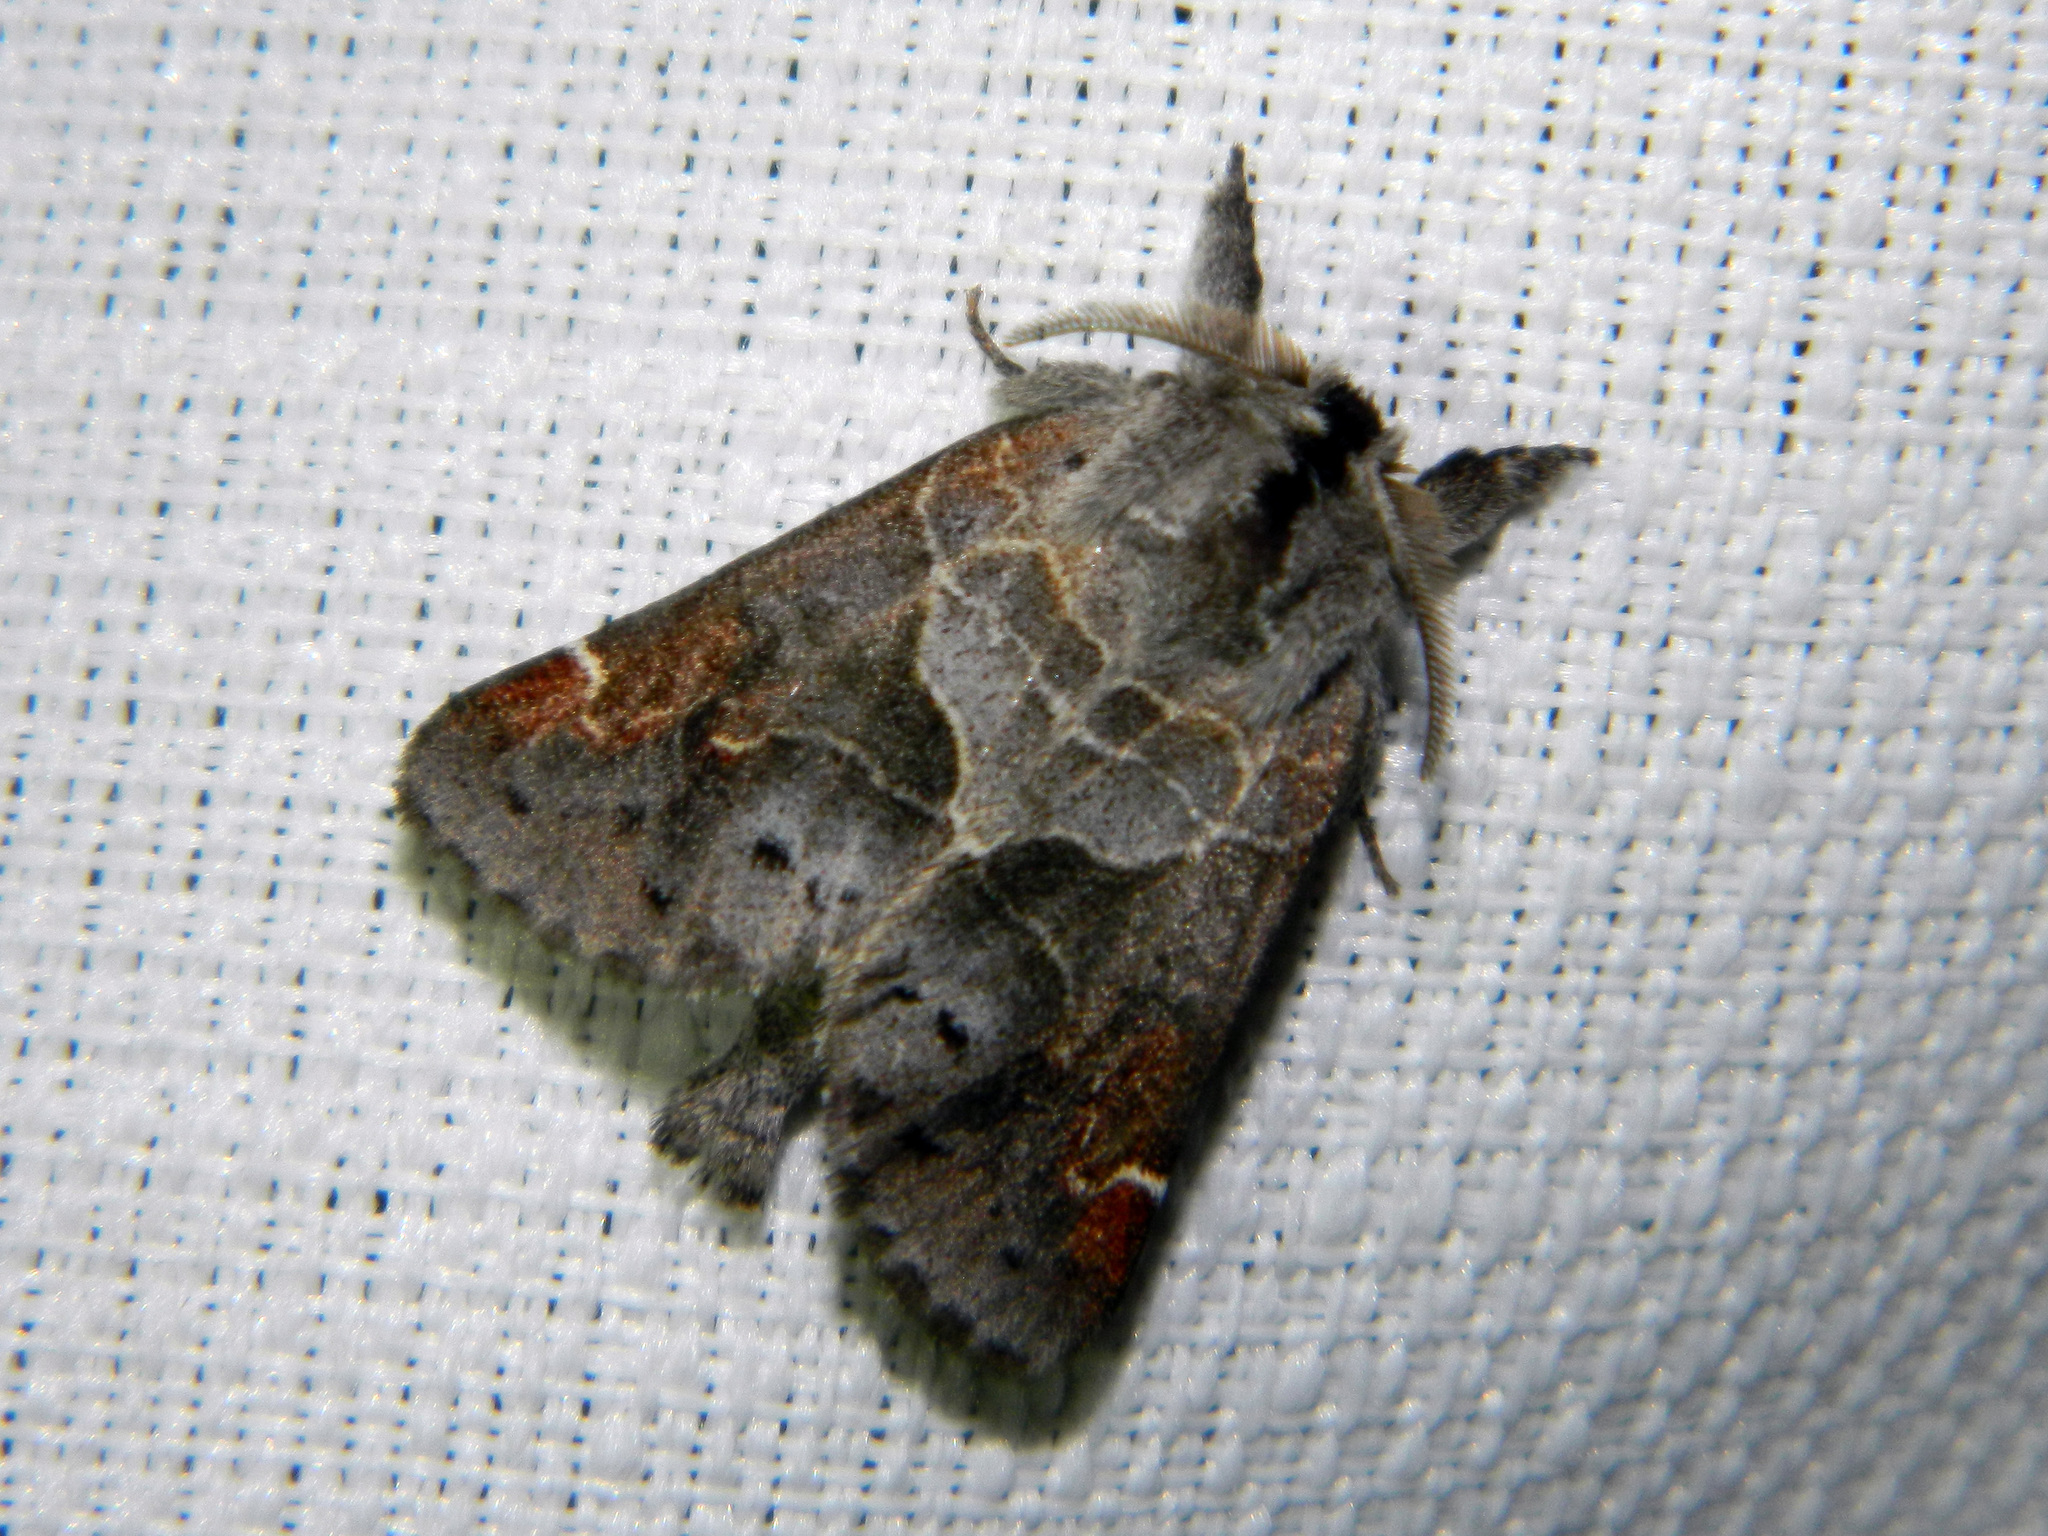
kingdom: Animalia
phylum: Arthropoda
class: Insecta
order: Lepidoptera
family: Notodontidae
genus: Clostera
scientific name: Clostera apicalis
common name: Apical prominent
